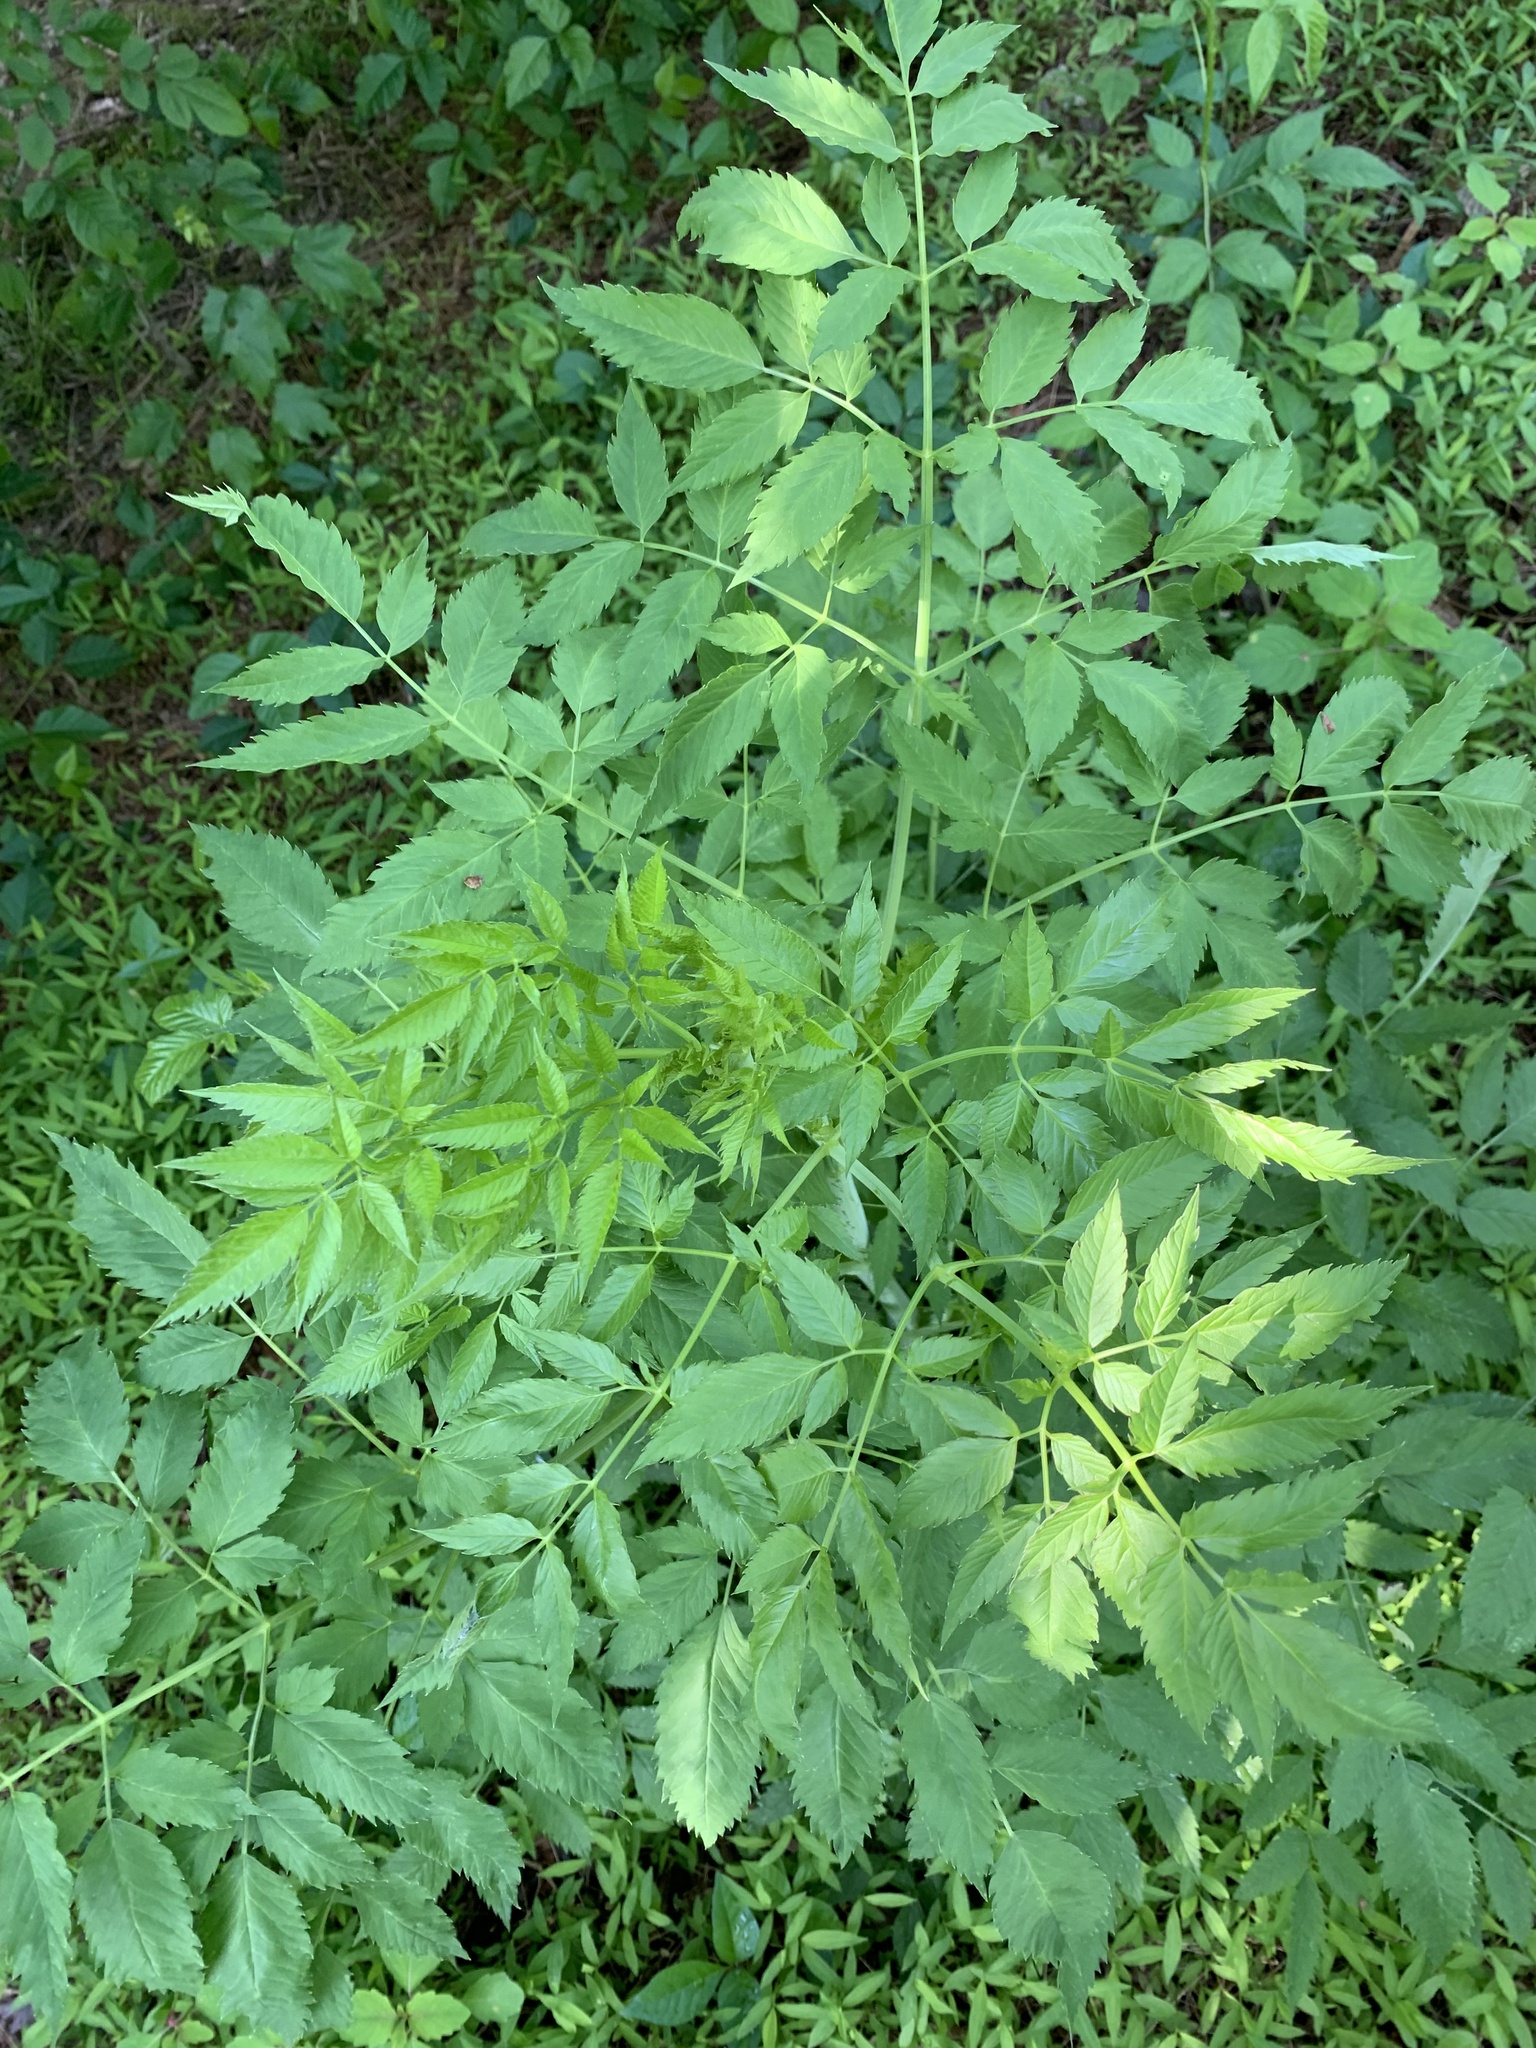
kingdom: Plantae
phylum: Tracheophyta
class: Magnoliopsida
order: Apiales
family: Apiaceae
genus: Cicuta
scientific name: Cicuta maculata
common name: Spotted cowbane
